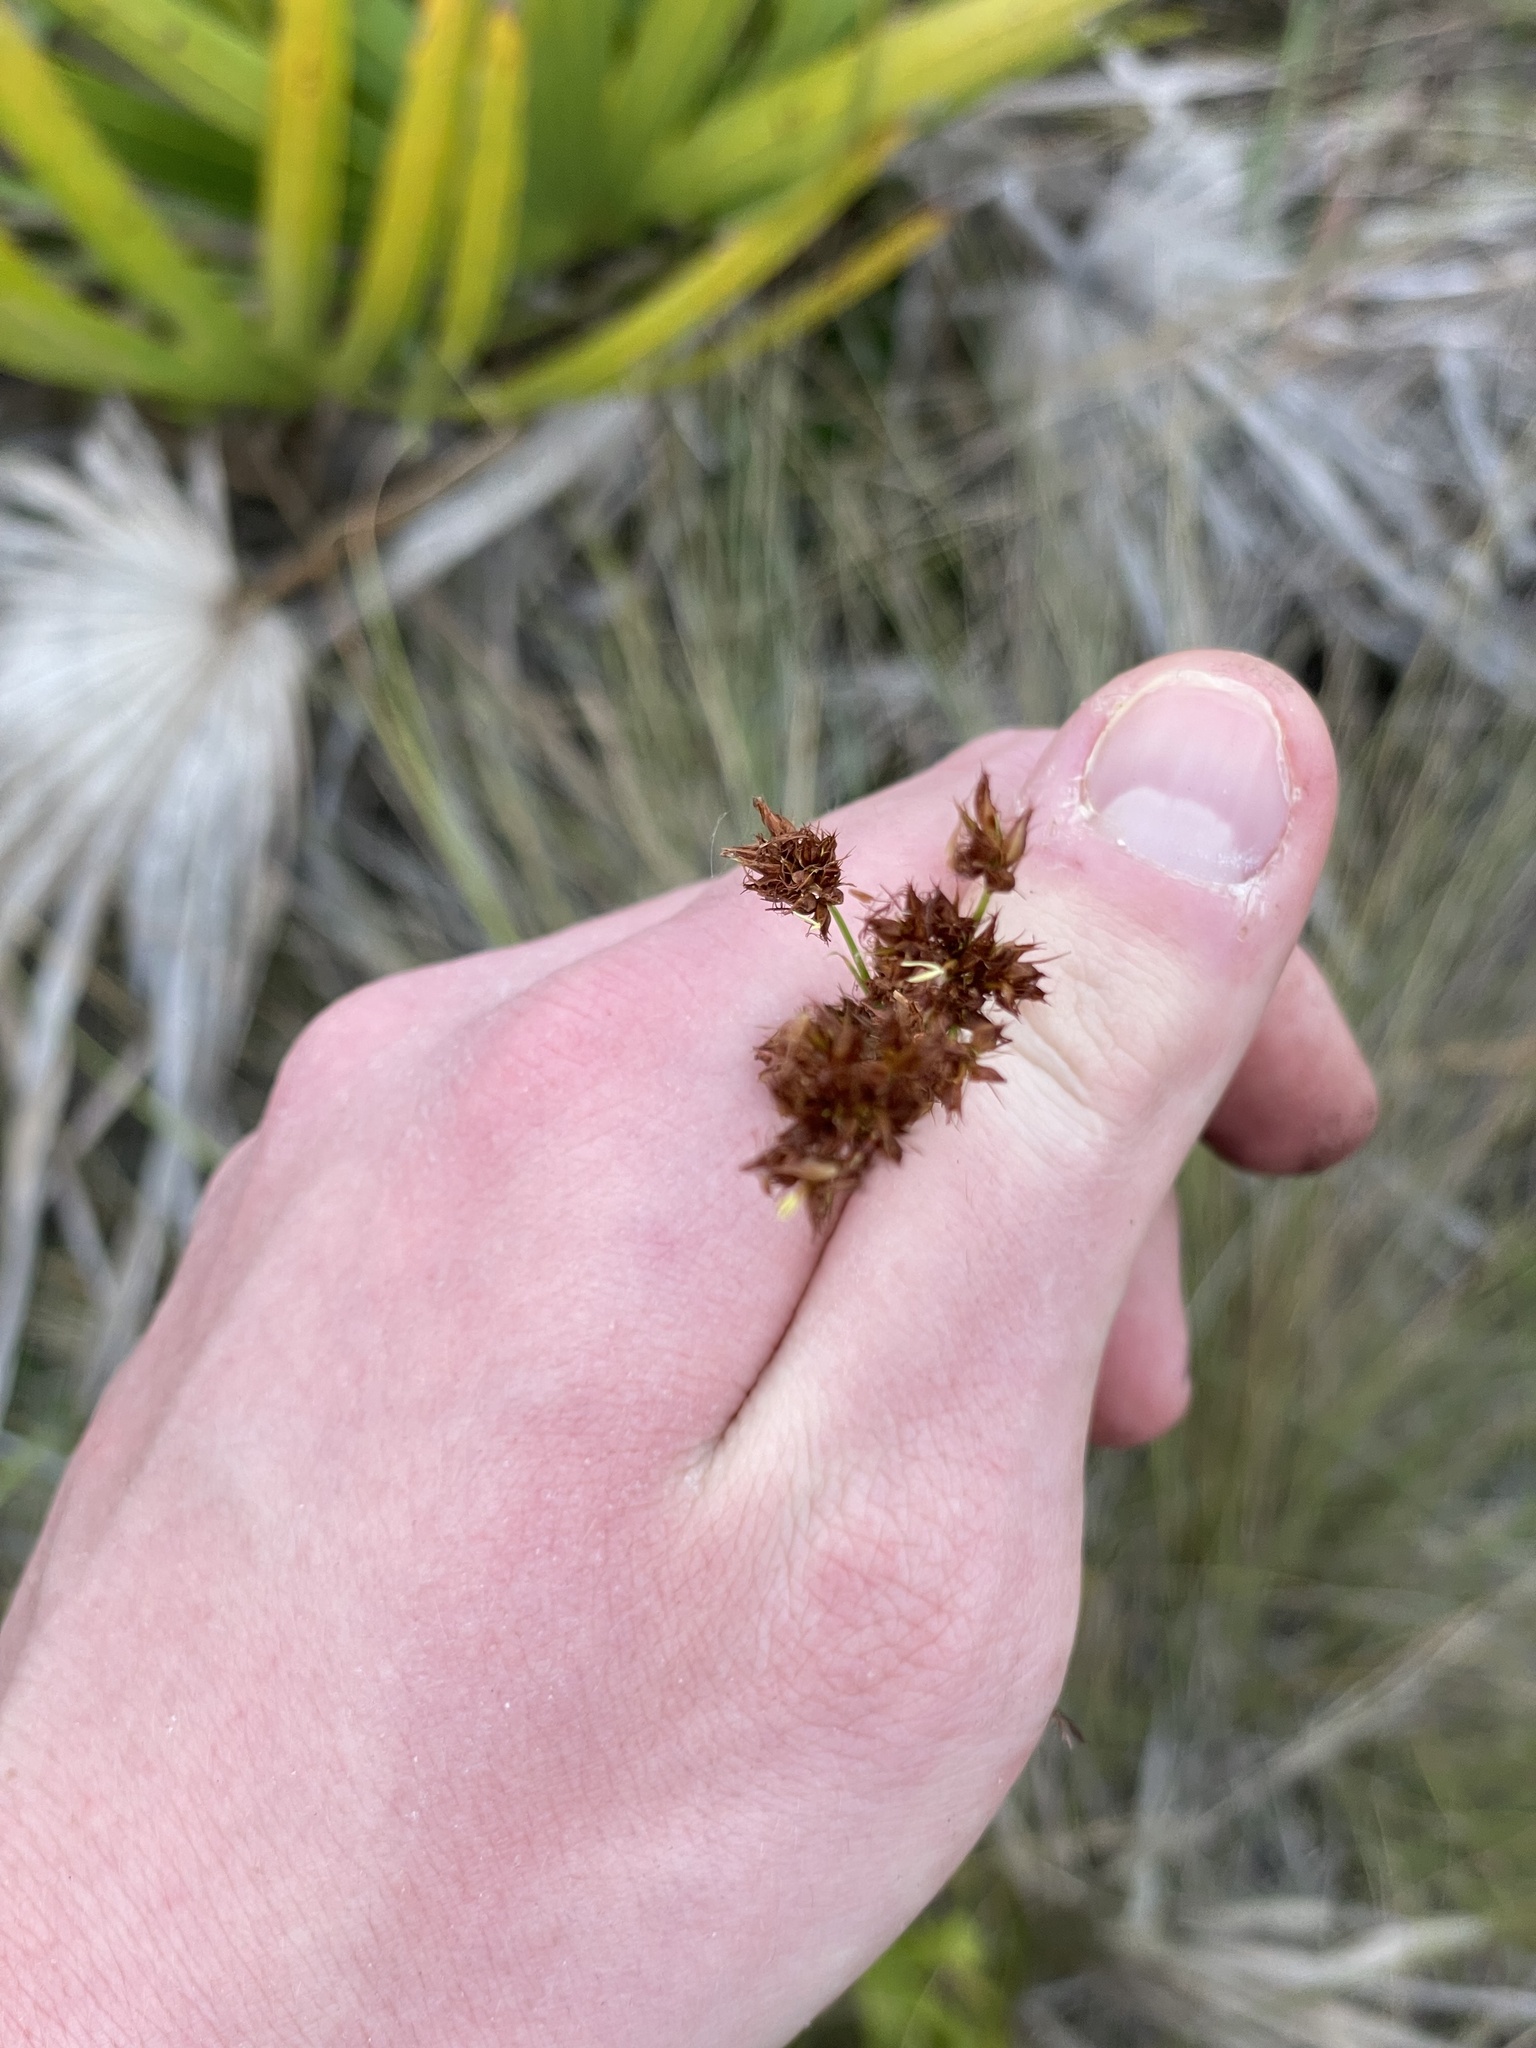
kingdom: Plantae
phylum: Tracheophyta
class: Liliopsida
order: Poales
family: Cyperaceae
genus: Rhynchospora
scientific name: Rhynchospora fascicularis
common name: Fascicled beak sedge
